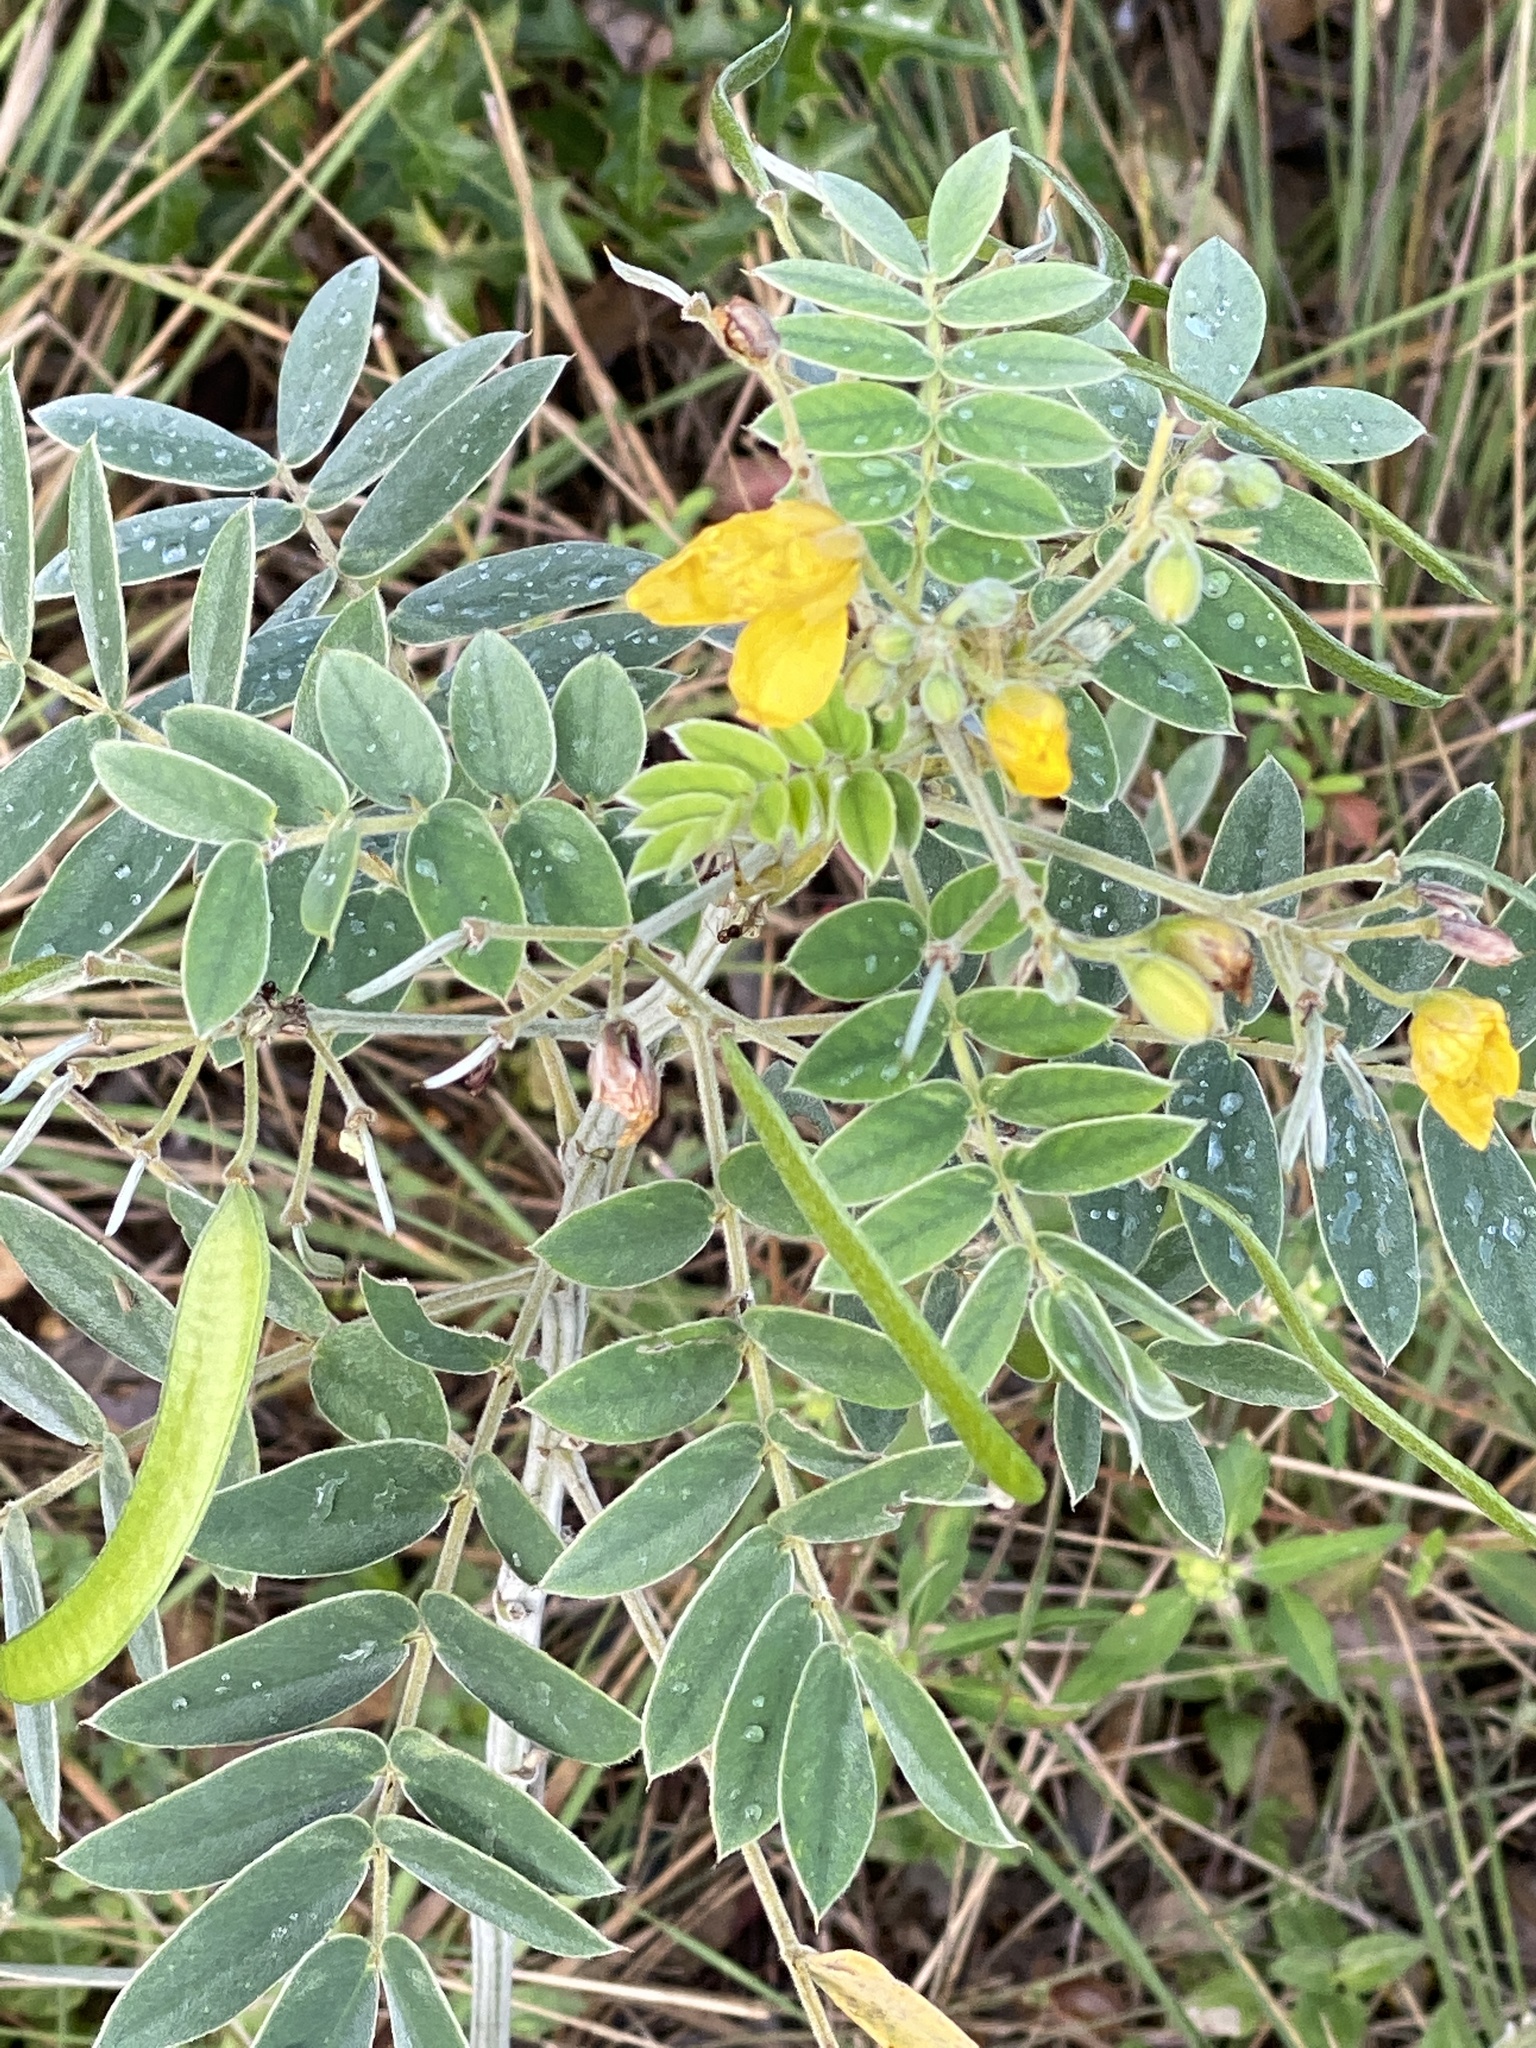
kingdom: Plantae
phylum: Tracheophyta
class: Magnoliopsida
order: Fabales
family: Fabaceae
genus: Senna
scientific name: Senna lindheimeriana
